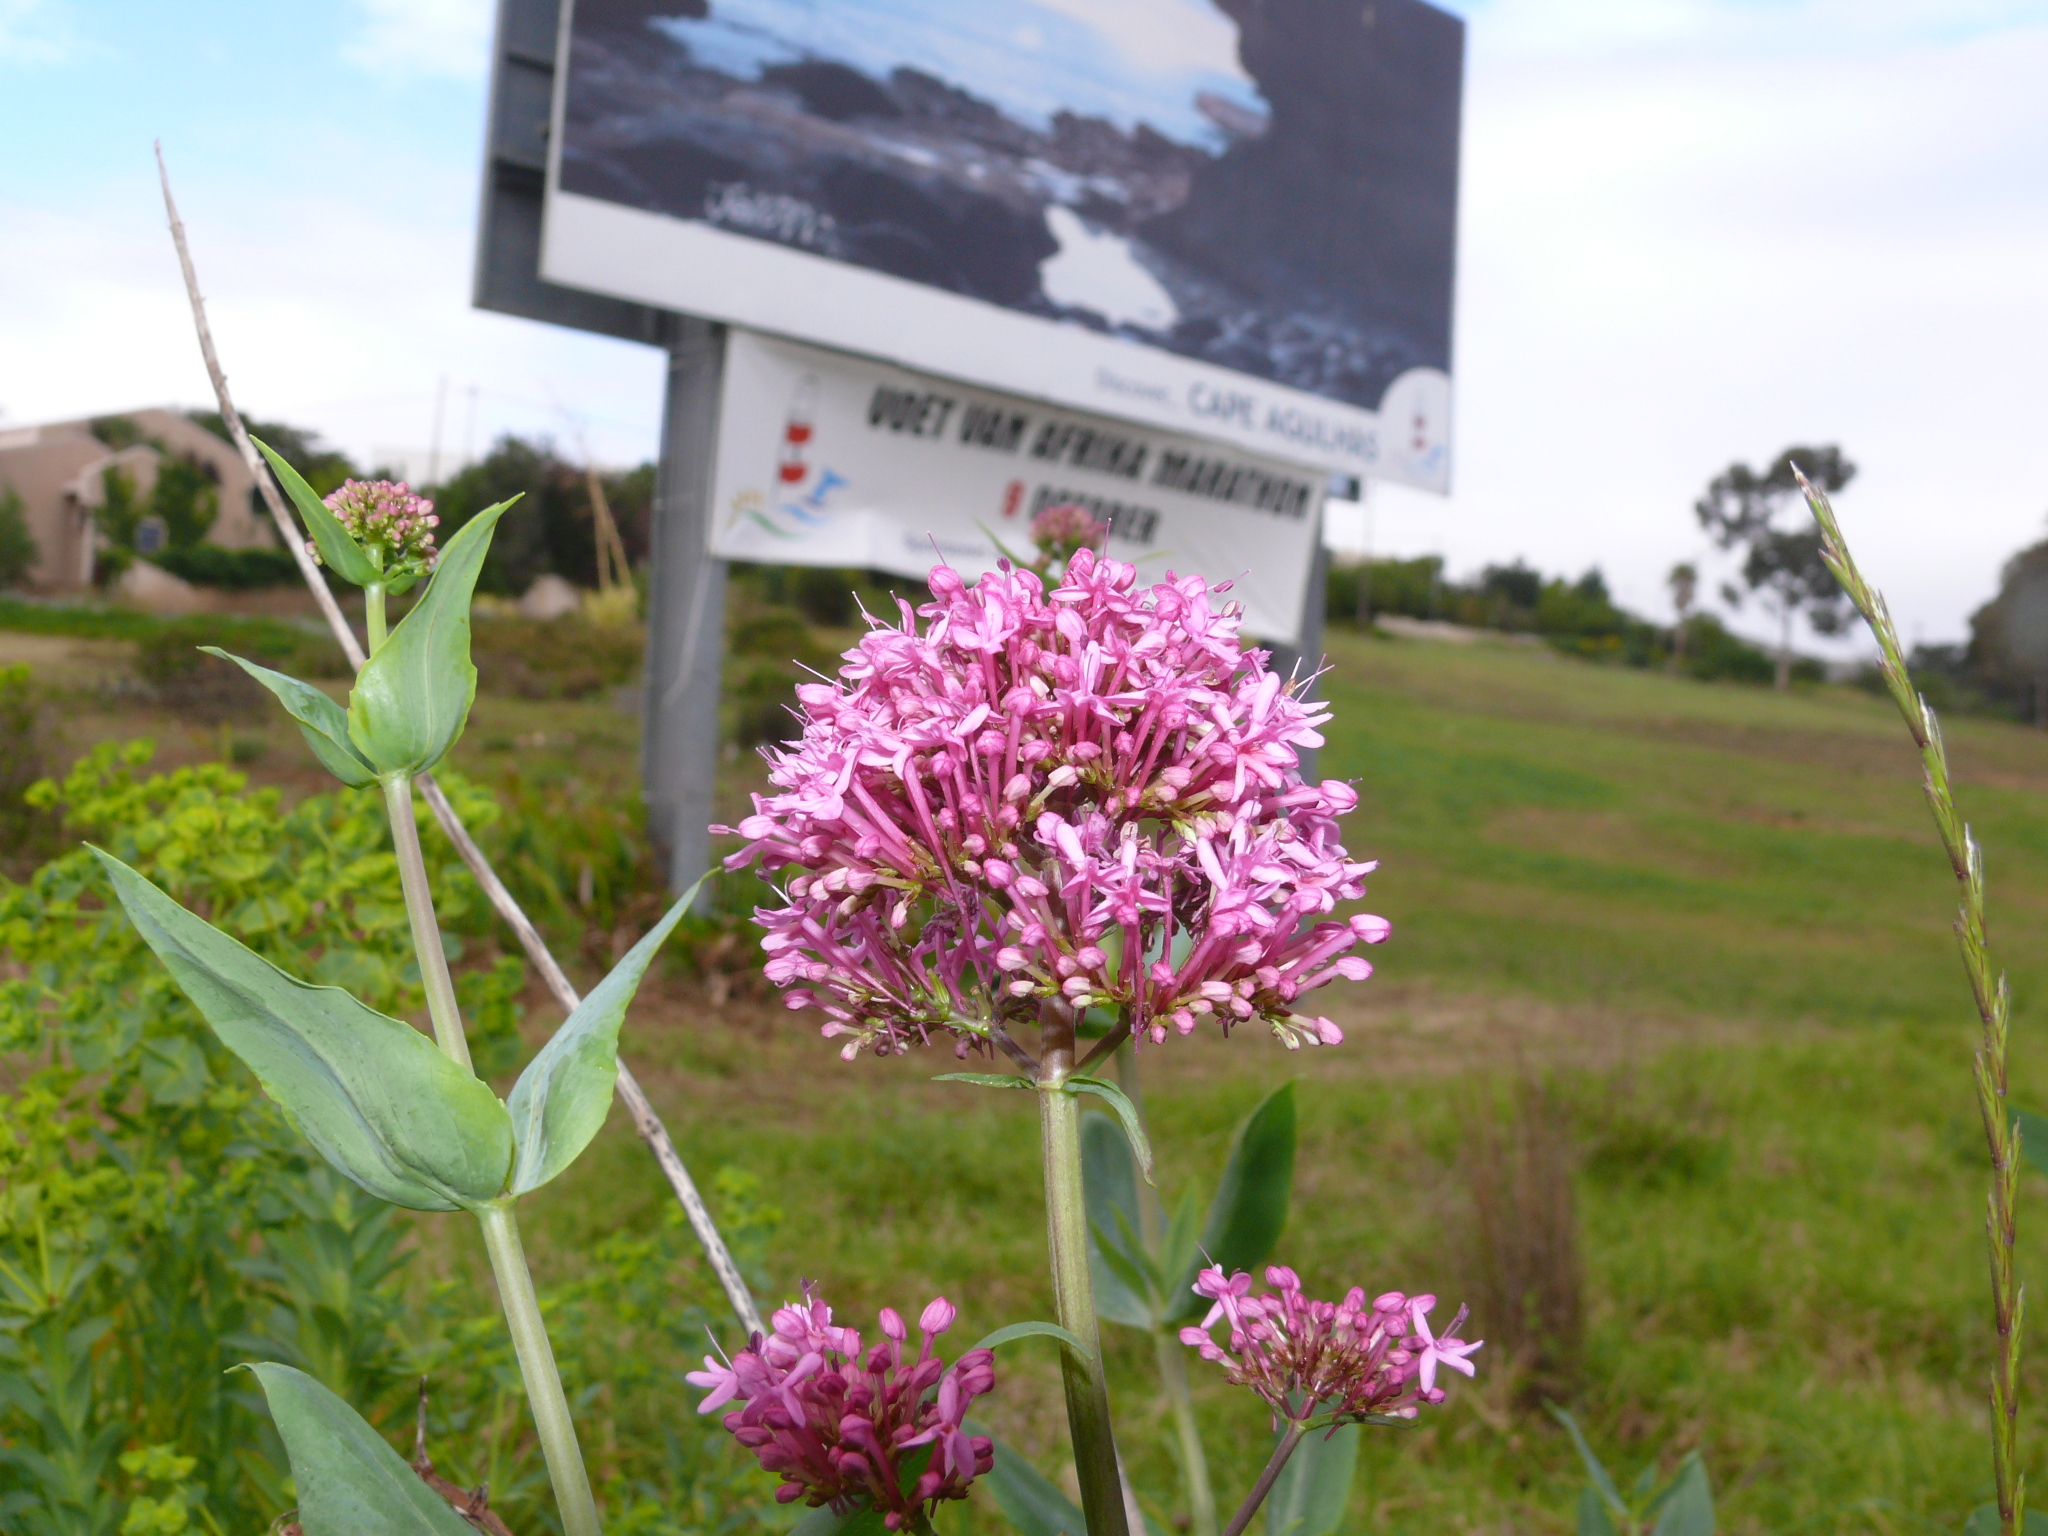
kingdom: Plantae
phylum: Tracheophyta
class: Magnoliopsida
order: Dipsacales
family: Caprifoliaceae
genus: Centranthus
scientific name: Centranthus ruber
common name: Red valerian
